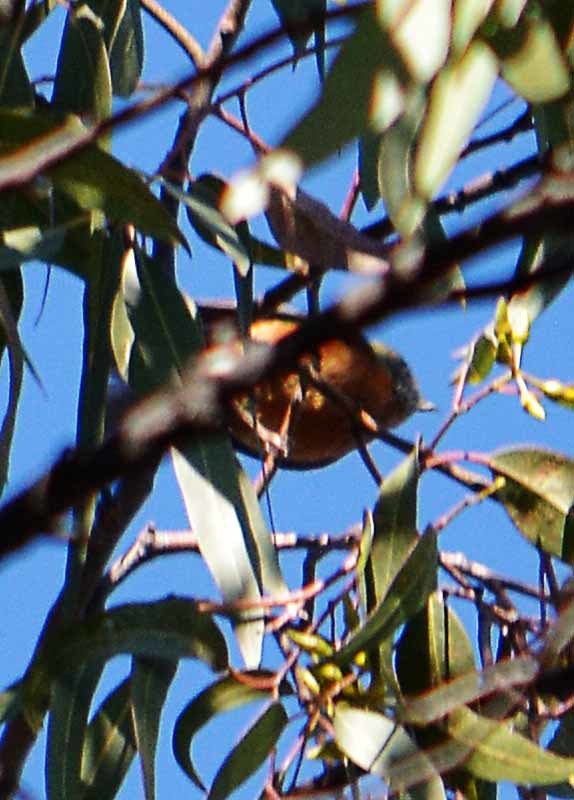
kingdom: Animalia
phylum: Chordata
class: Aves
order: Passeriformes
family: Turdidae
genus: Turdus
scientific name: Turdus migratorius
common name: American robin
